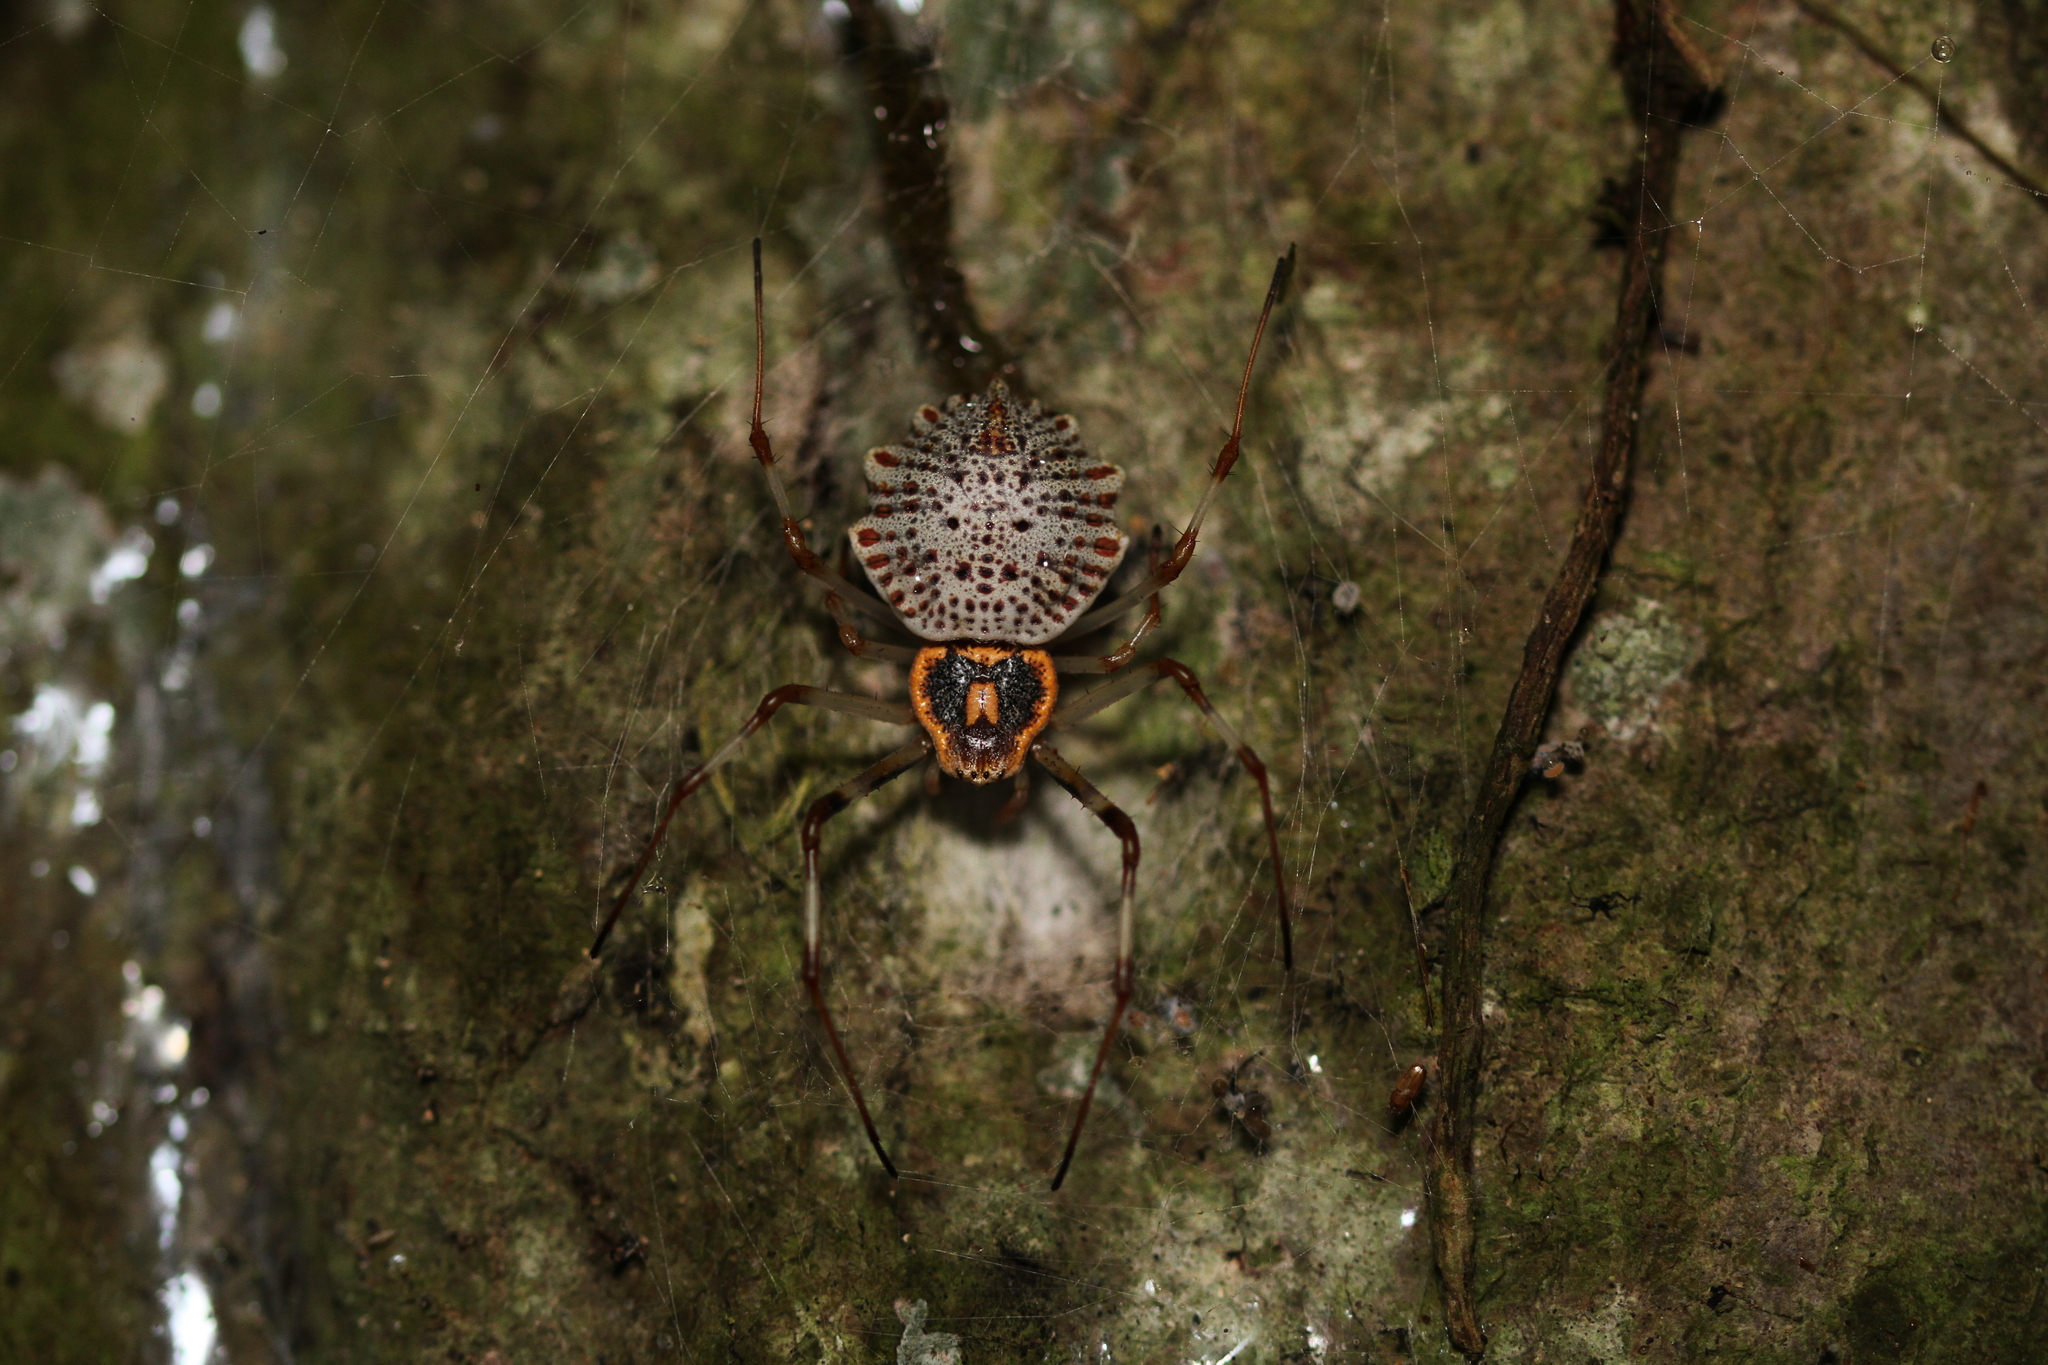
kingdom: Animalia
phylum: Arthropoda
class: Arachnida
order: Araneae
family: Araneidae
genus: Herennia
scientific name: Herennia multipuncta
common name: Spotted coin spider
